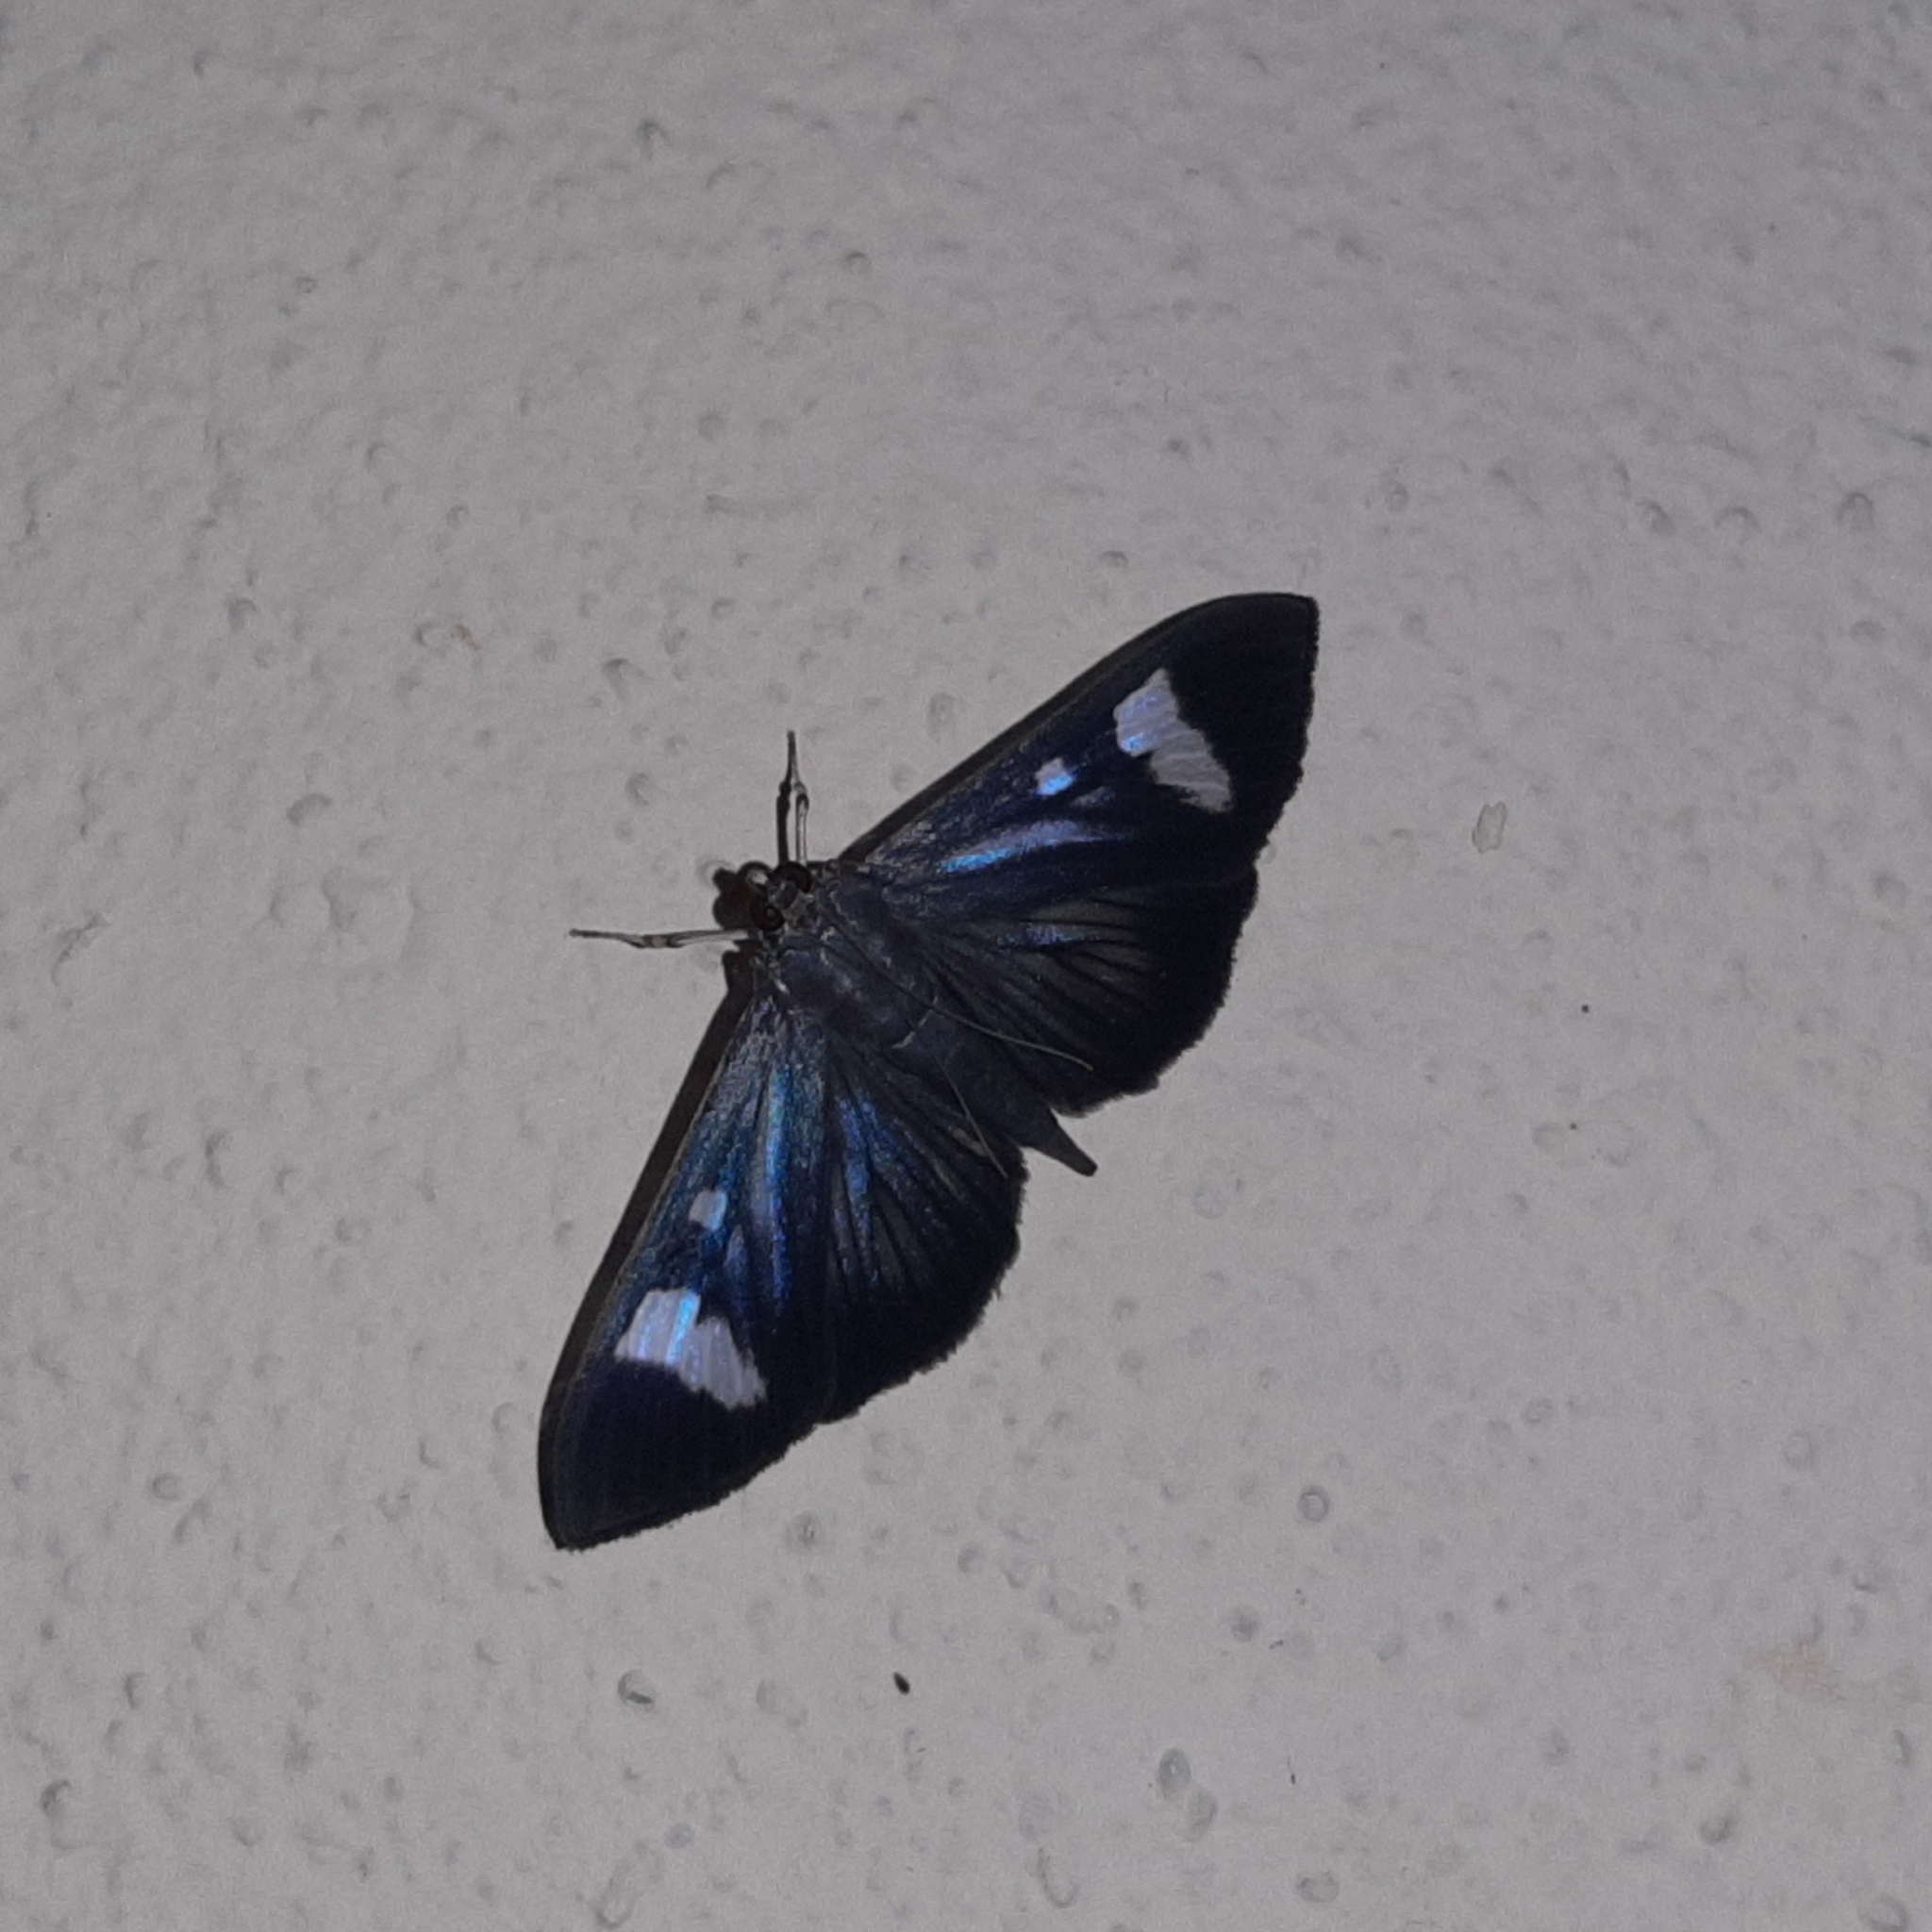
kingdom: Animalia
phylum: Arthropoda
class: Insecta
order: Lepidoptera
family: Crambidae
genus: Phostria
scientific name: Phostria Erilusa leucoplagialis
